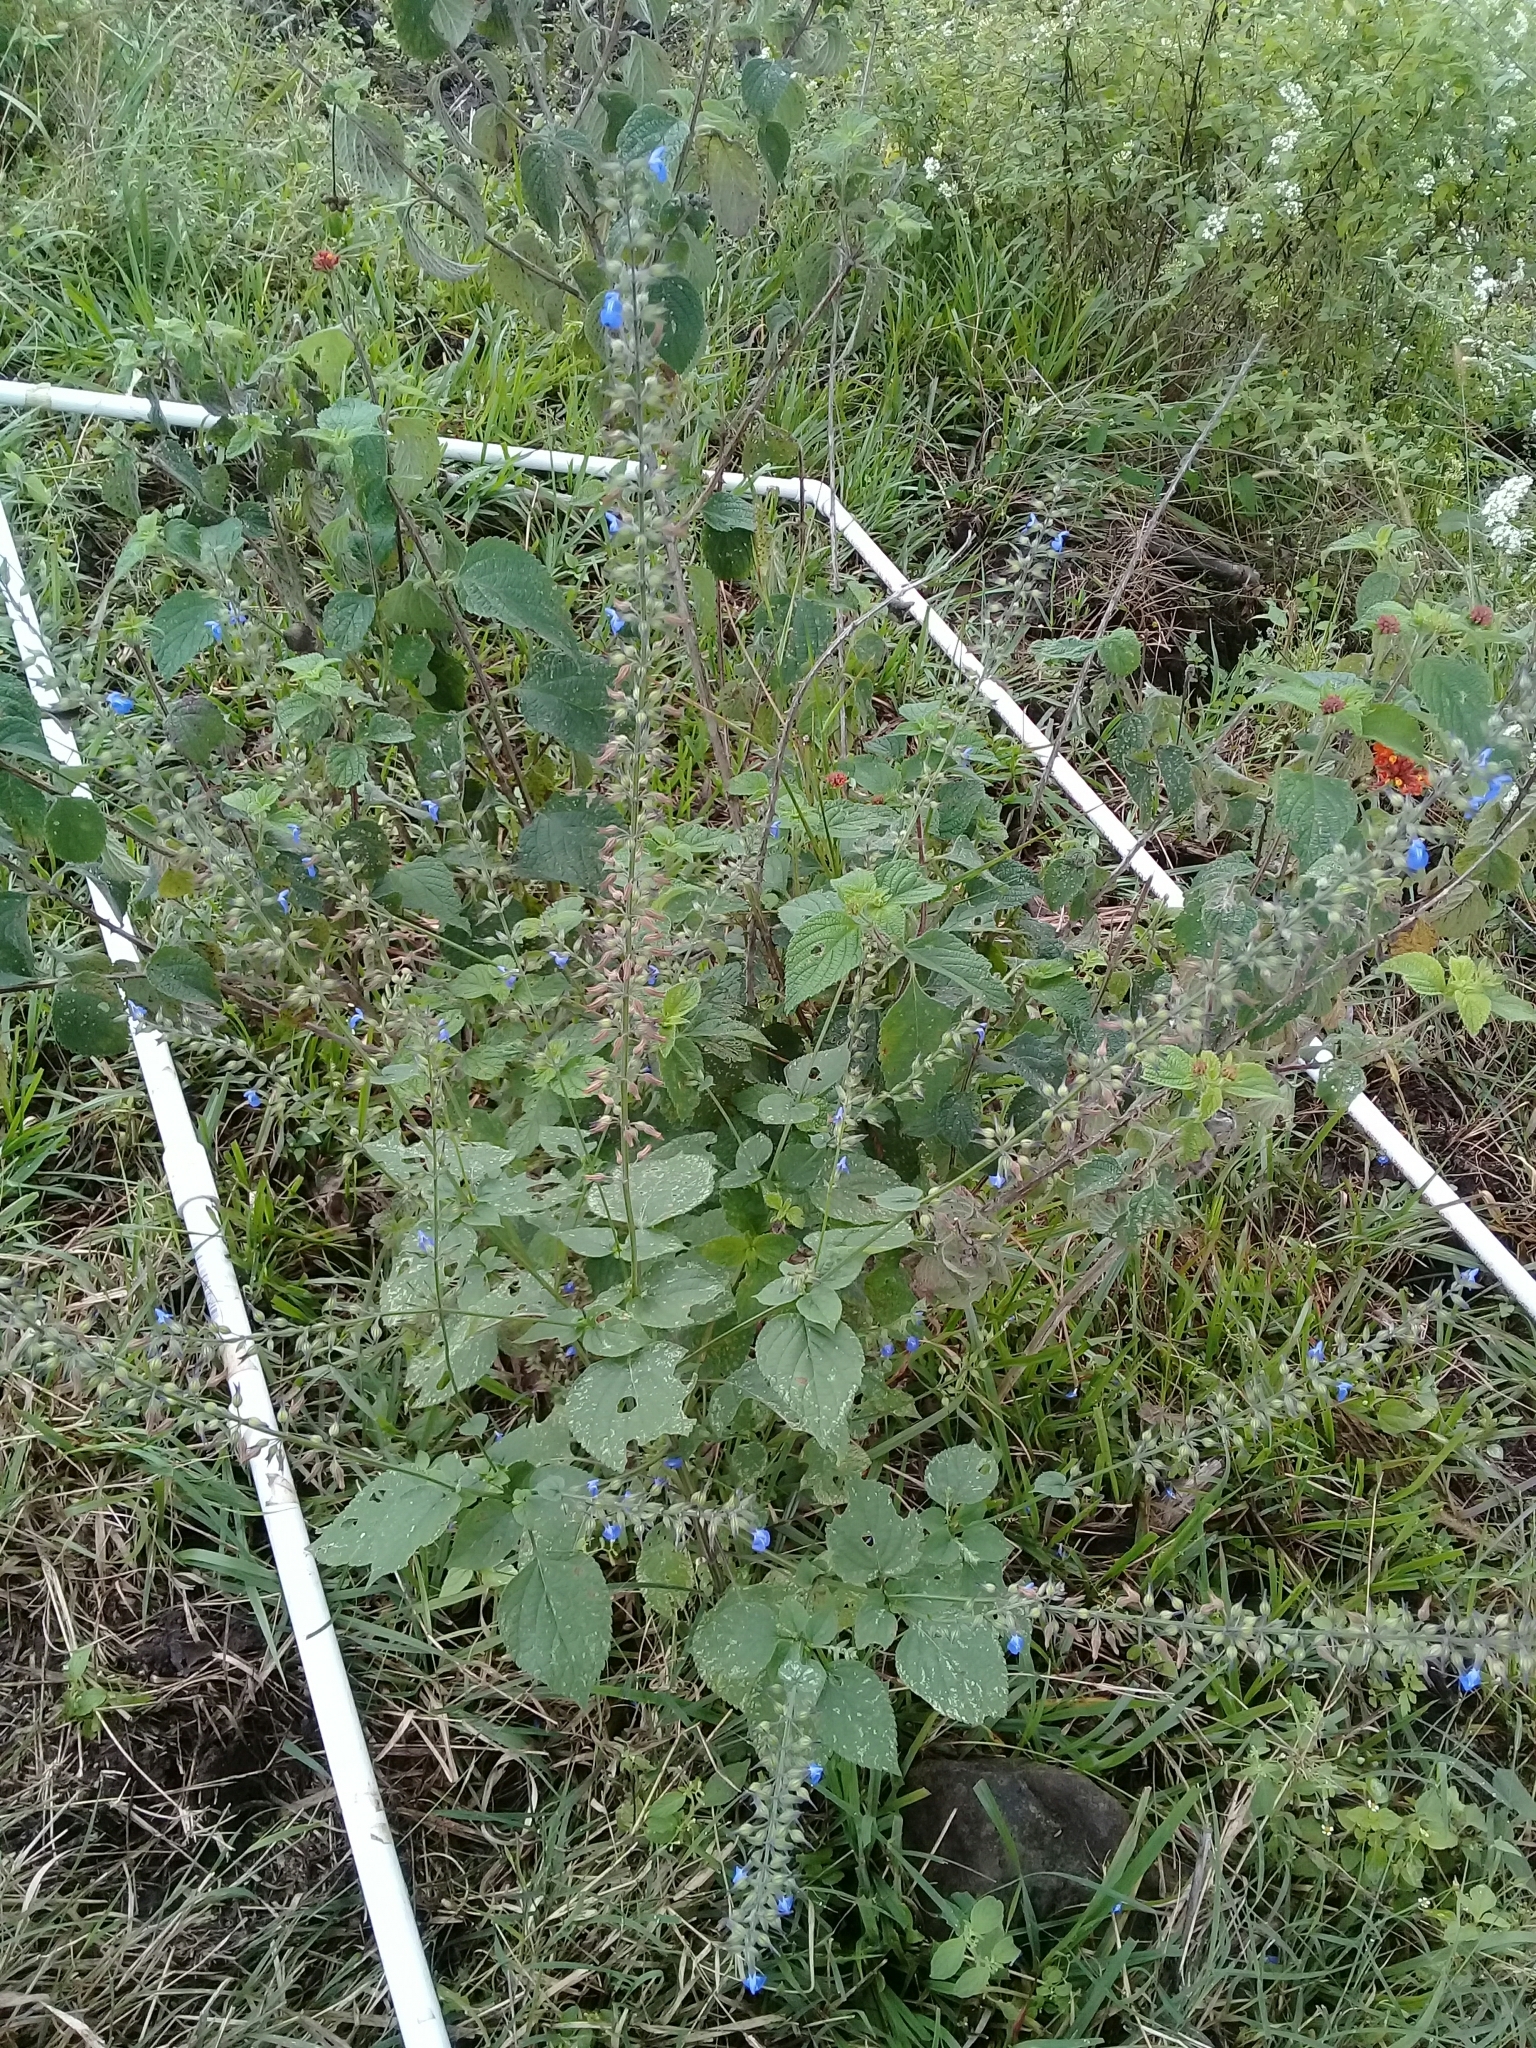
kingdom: Plantae
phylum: Tracheophyta
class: Magnoliopsida
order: Lamiales
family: Lamiaceae
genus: Salvia
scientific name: Salvia leptostachys
